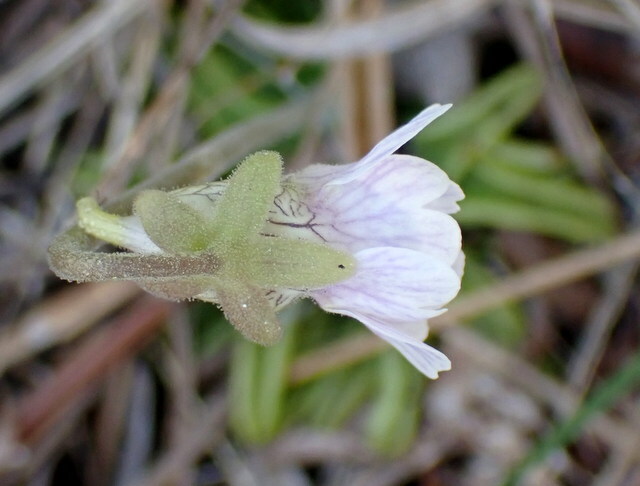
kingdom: Plantae
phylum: Tracheophyta
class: Magnoliopsida
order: Lamiales
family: Lentibulariaceae
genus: Pinguicula
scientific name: Pinguicula caerulea
